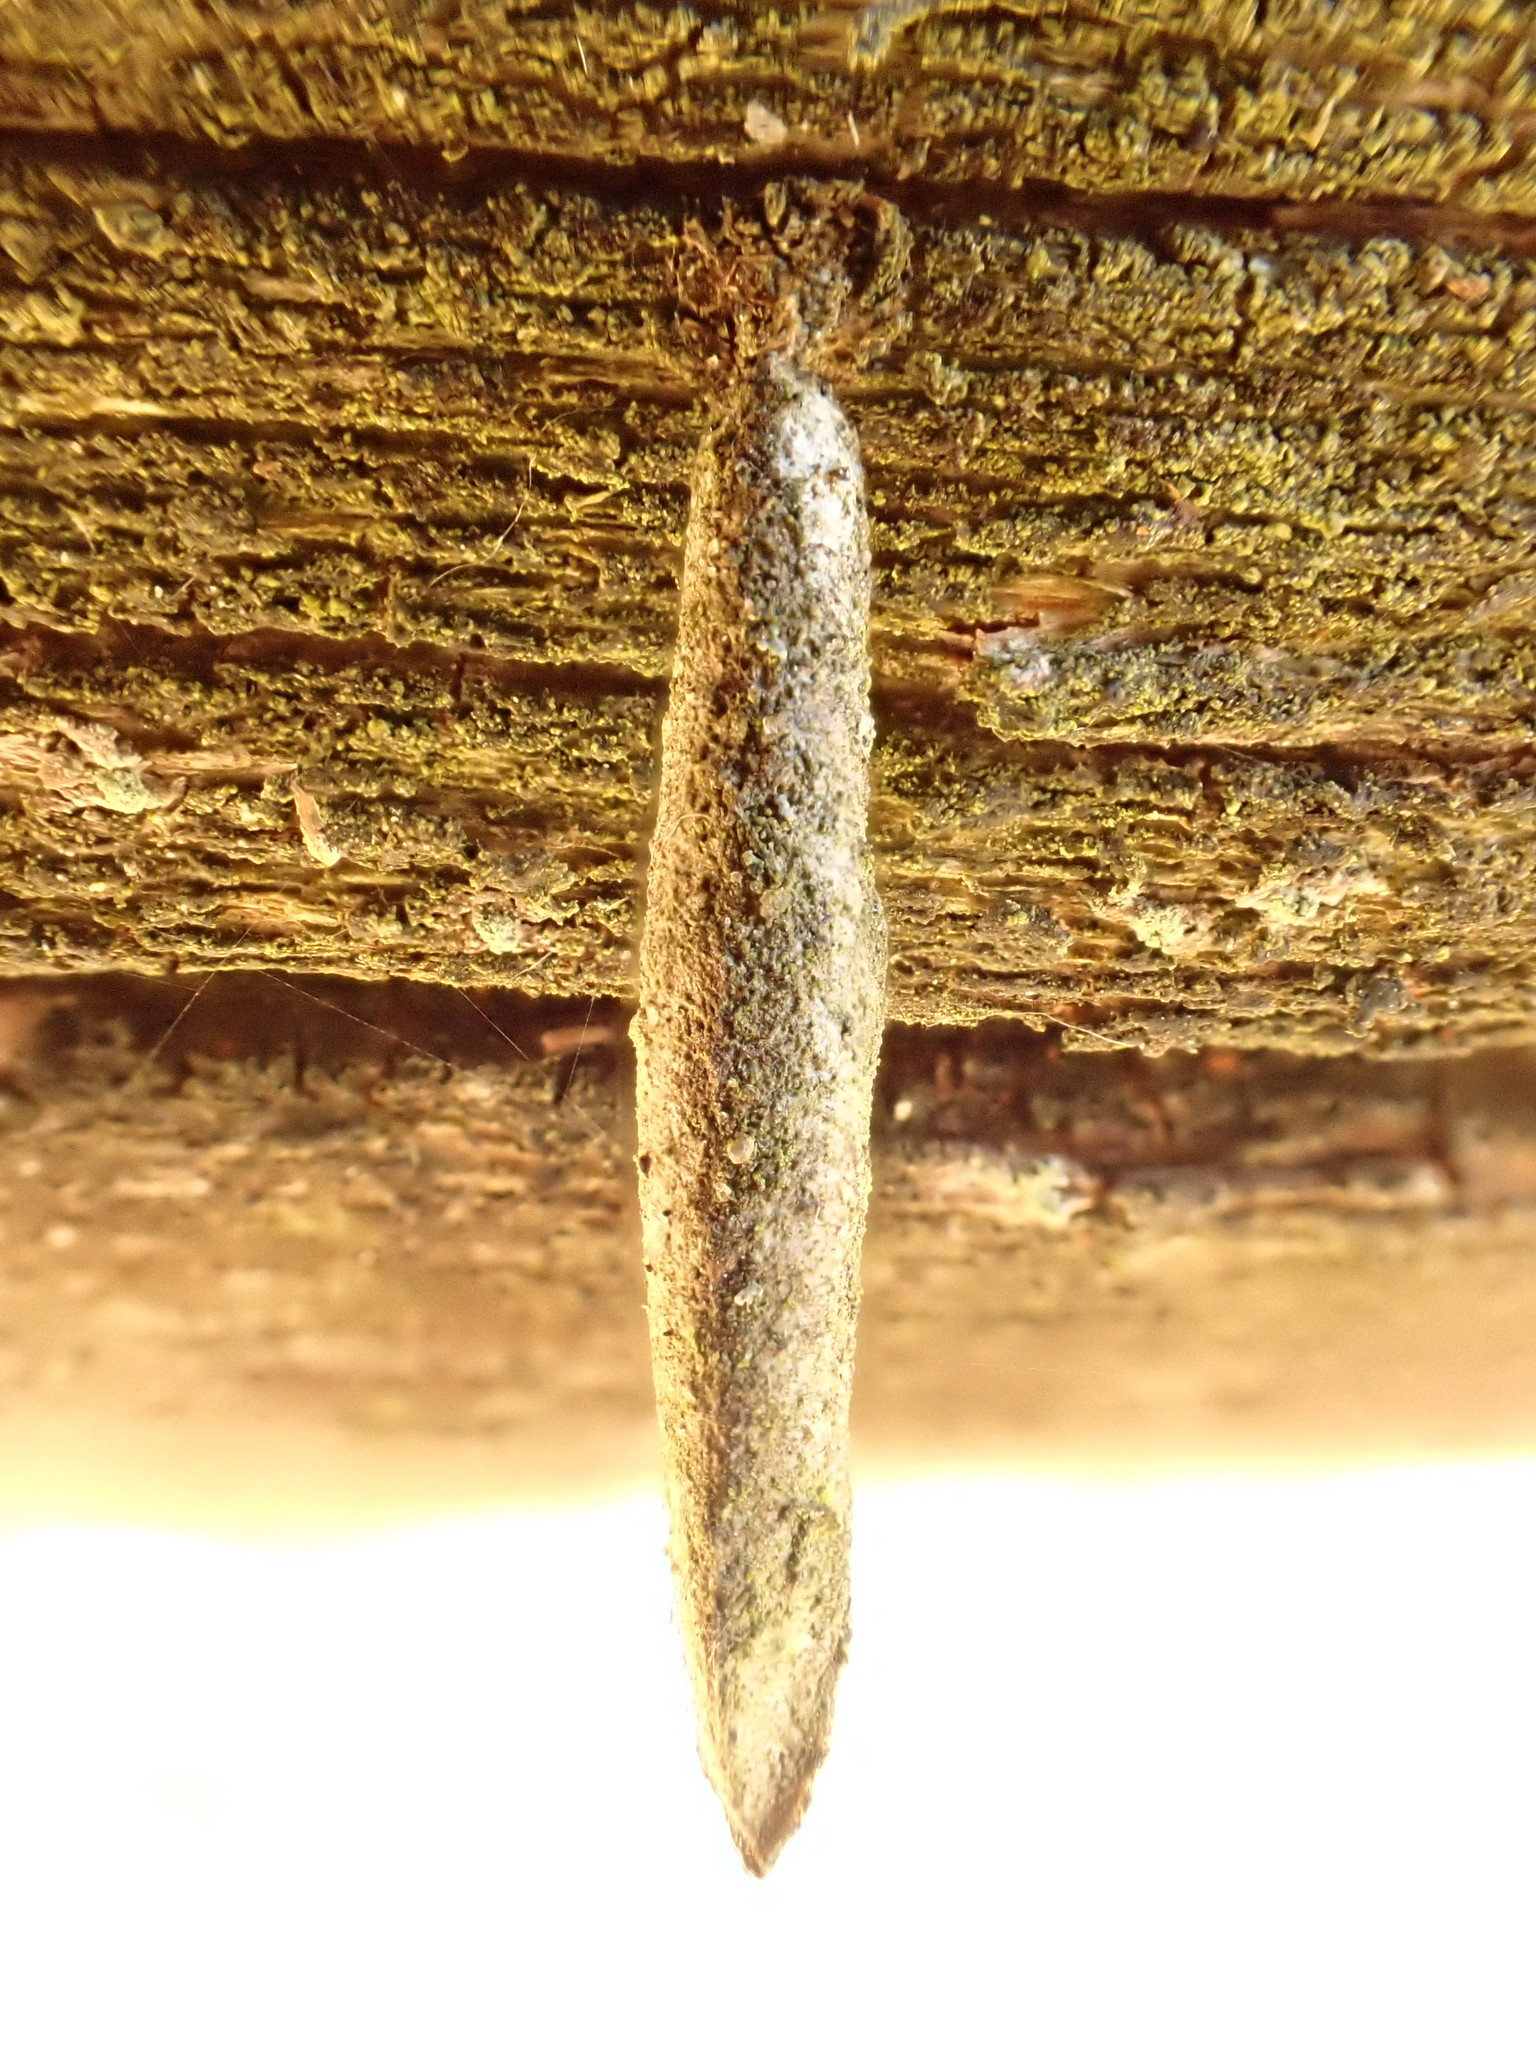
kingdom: Animalia
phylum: Arthropoda
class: Insecta
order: Lepidoptera
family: Psychidae
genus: Taleporia
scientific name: Taleporia tubulosa
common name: Brown smoke
